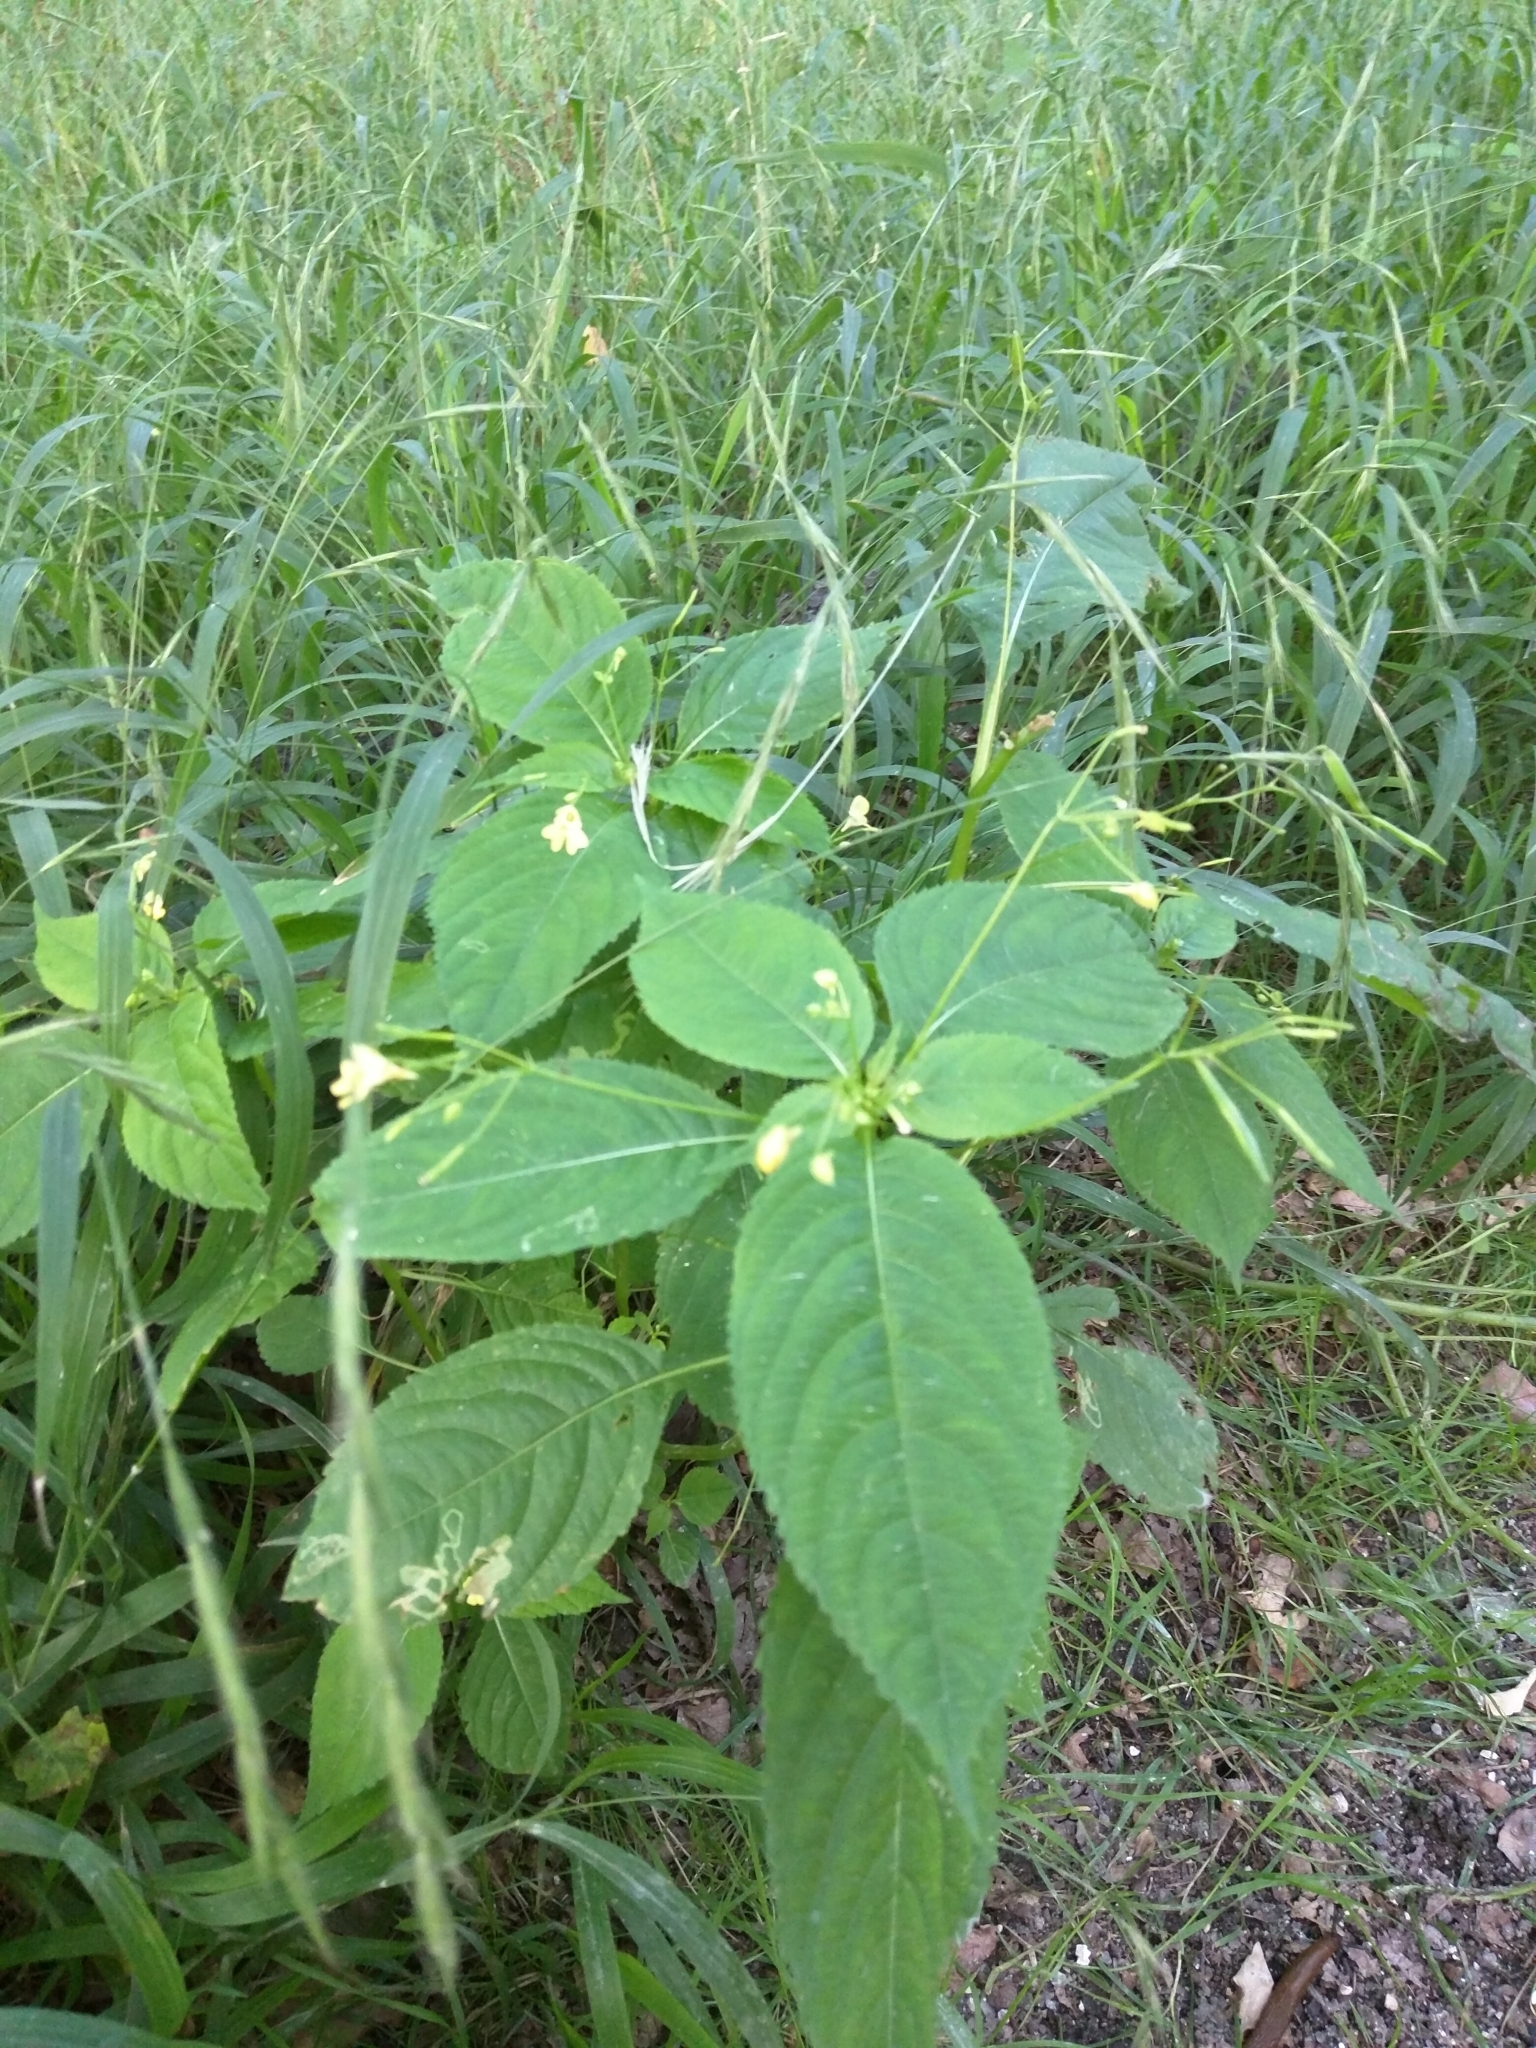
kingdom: Plantae
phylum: Tracheophyta
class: Magnoliopsida
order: Ericales
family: Balsaminaceae
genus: Impatiens
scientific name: Impatiens parviflora
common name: Small balsam
